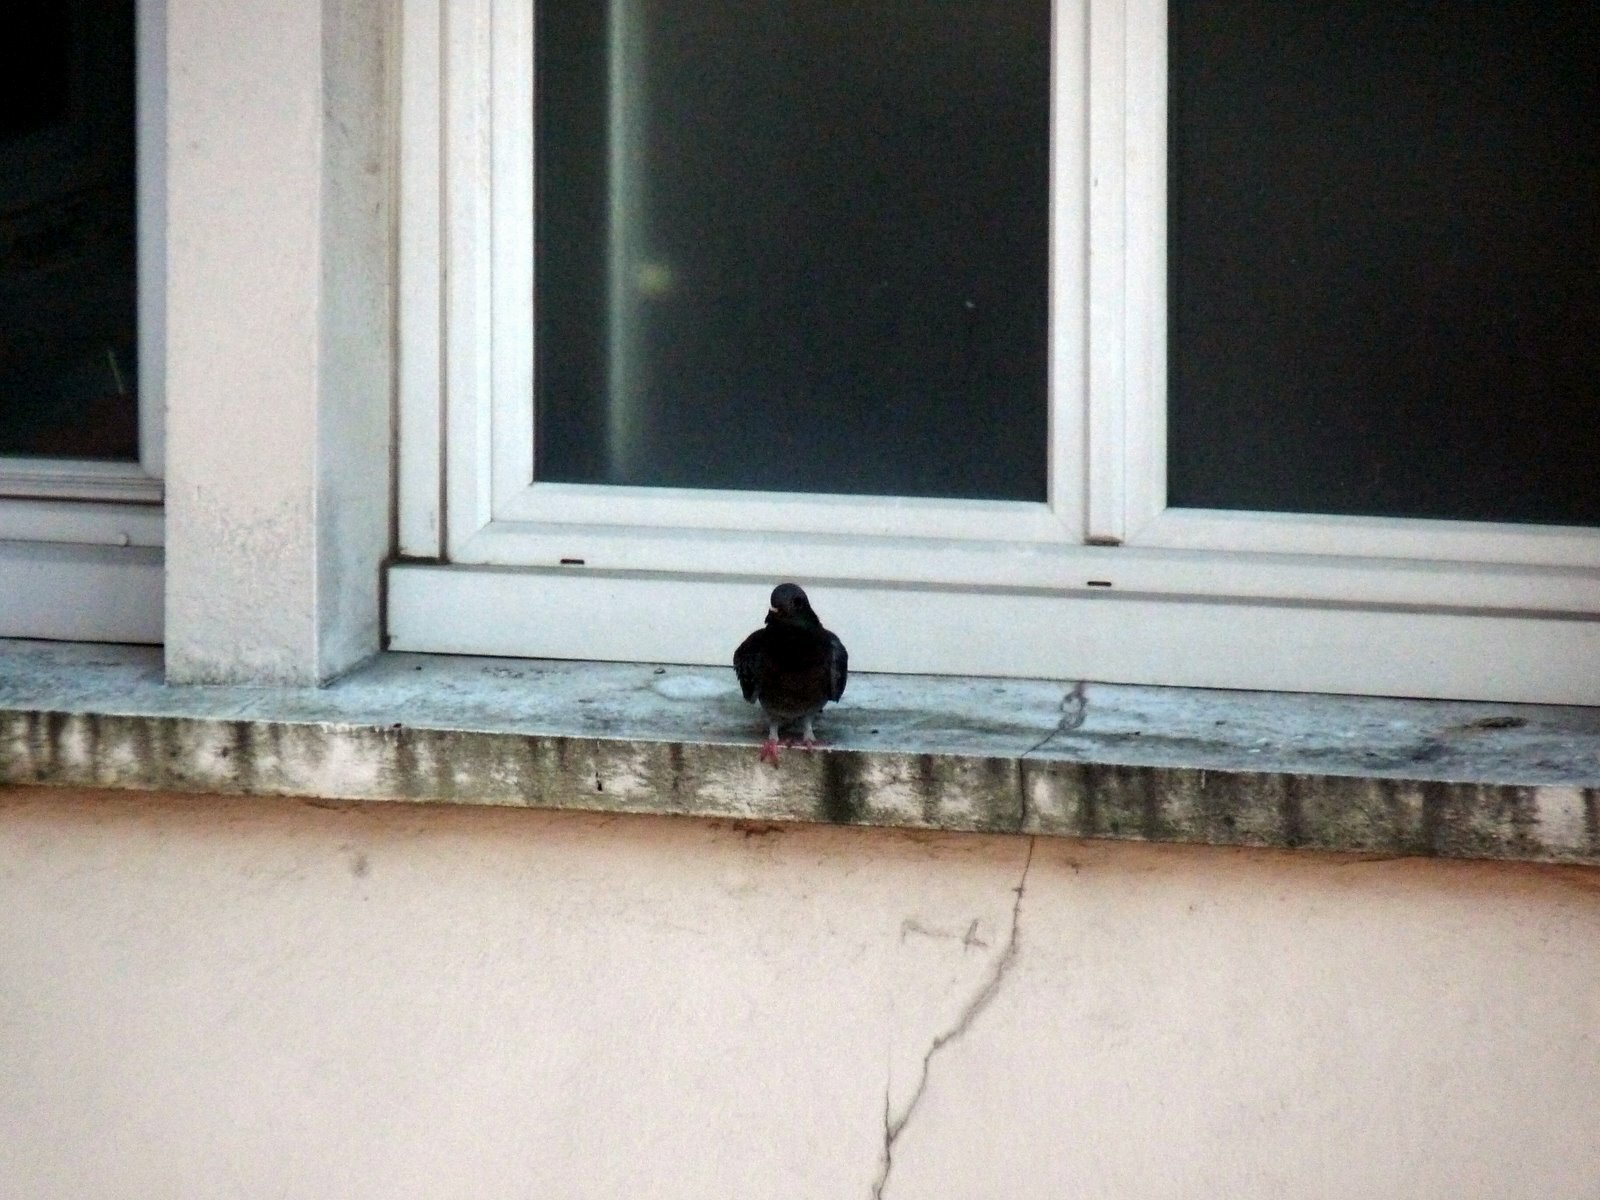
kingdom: Animalia
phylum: Chordata
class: Aves
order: Columbiformes
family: Columbidae
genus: Columba
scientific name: Columba livia
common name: Rock pigeon
